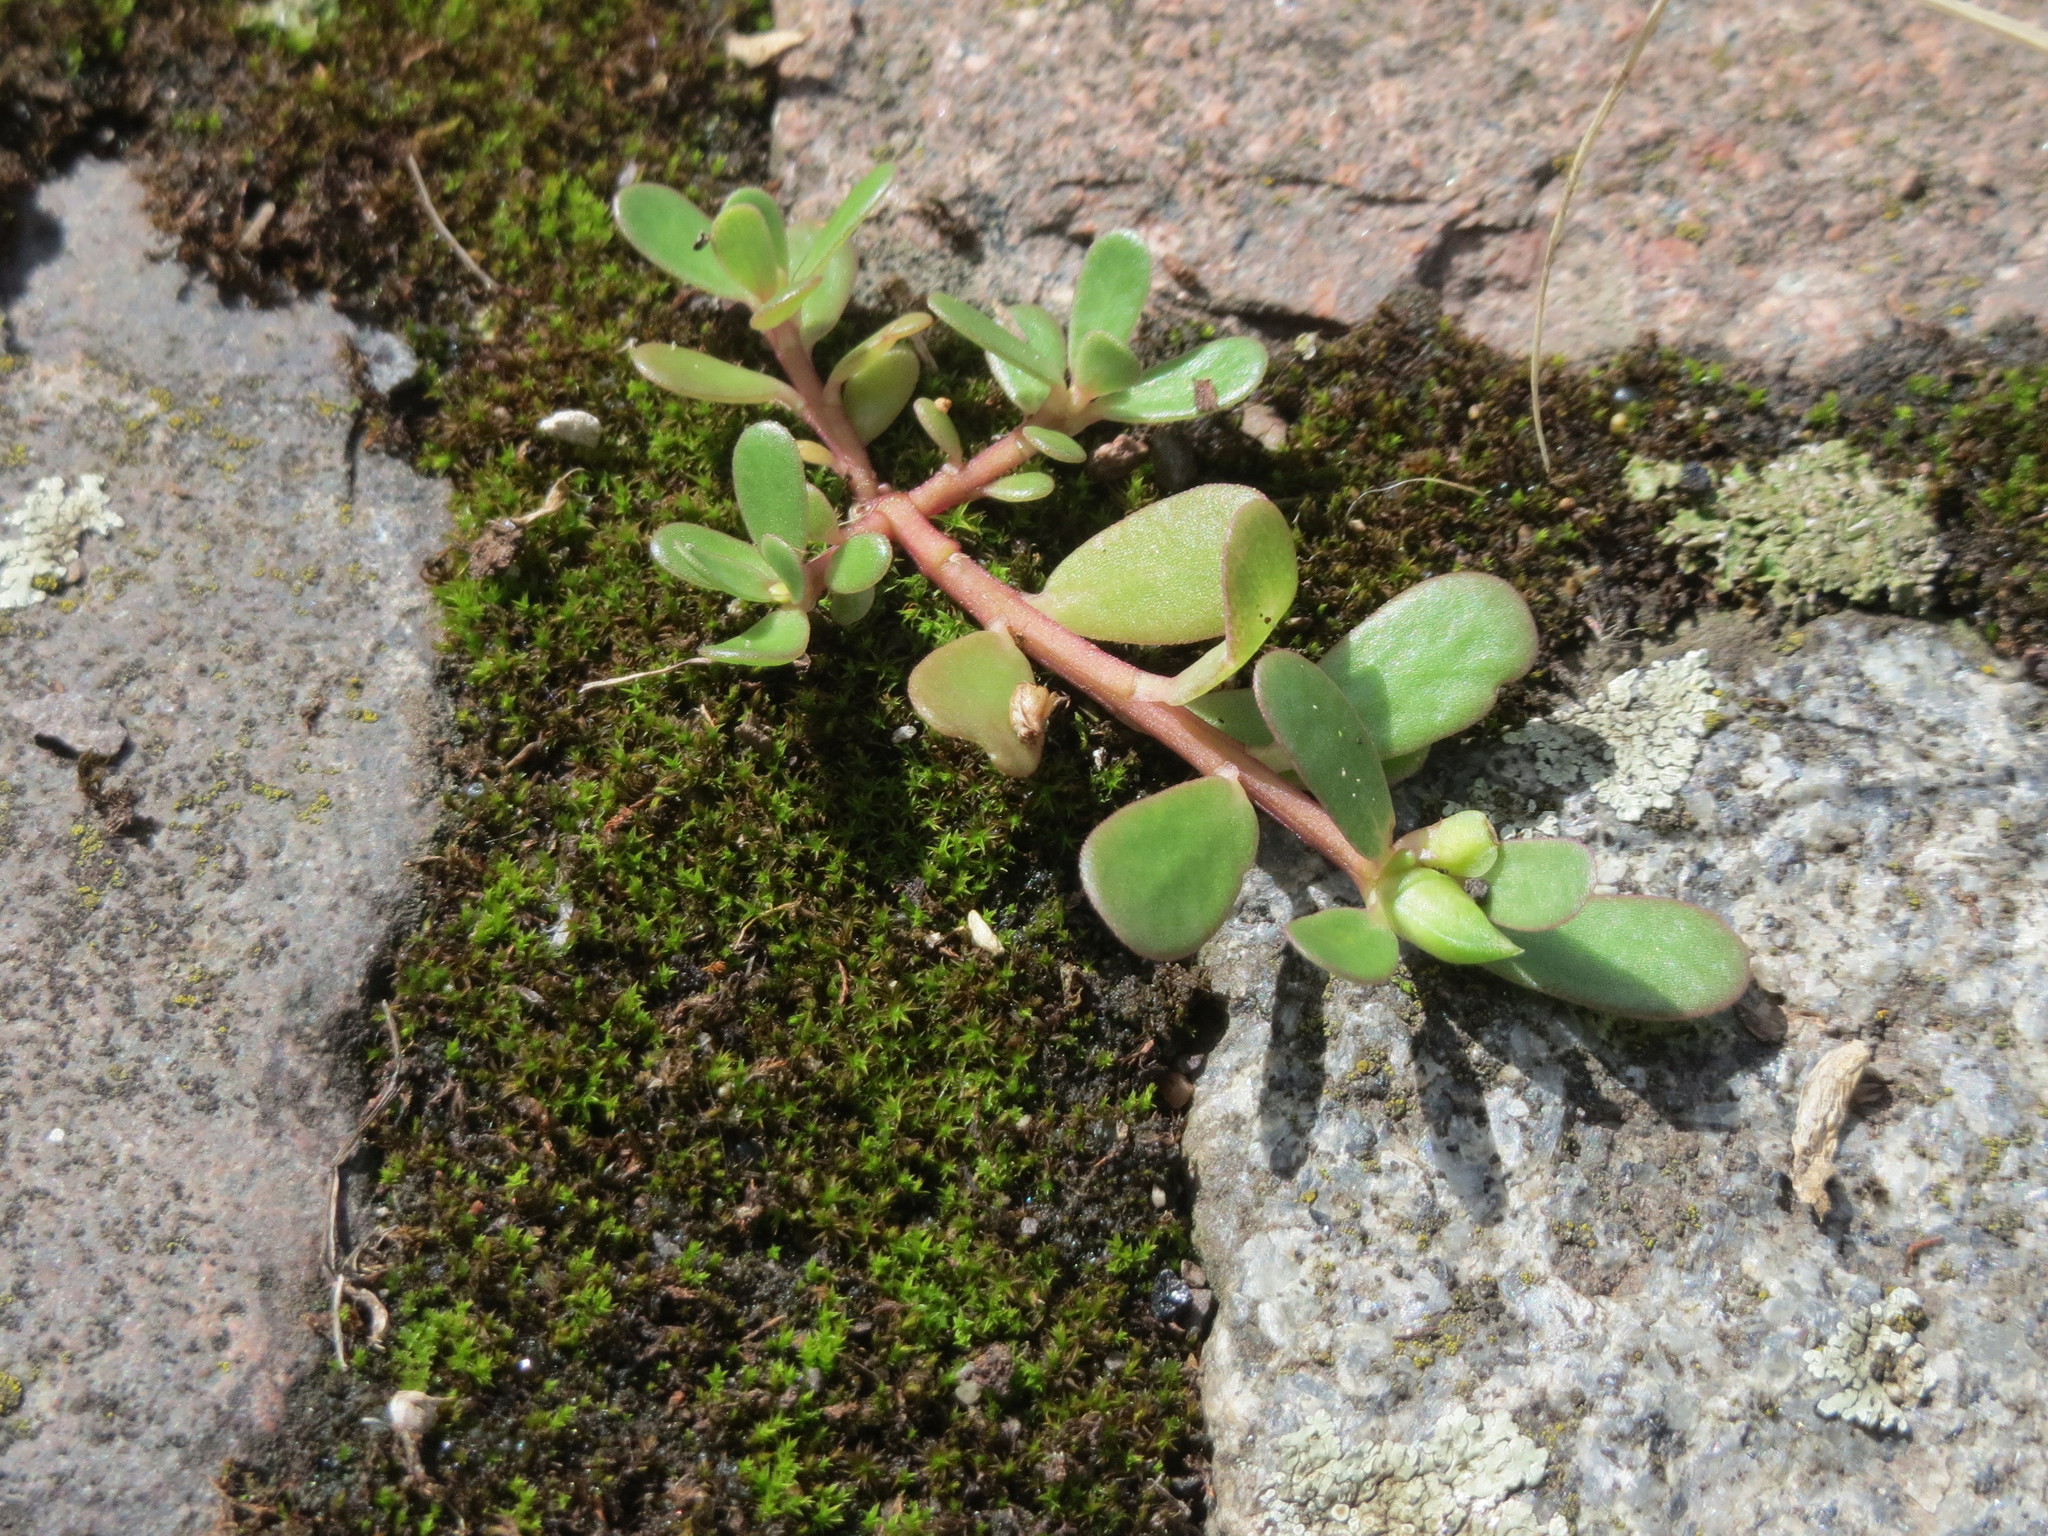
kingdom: Plantae
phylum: Tracheophyta
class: Magnoliopsida
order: Caryophyllales
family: Portulacaceae
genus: Portulaca
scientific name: Portulaca oleracea
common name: Common purslane
